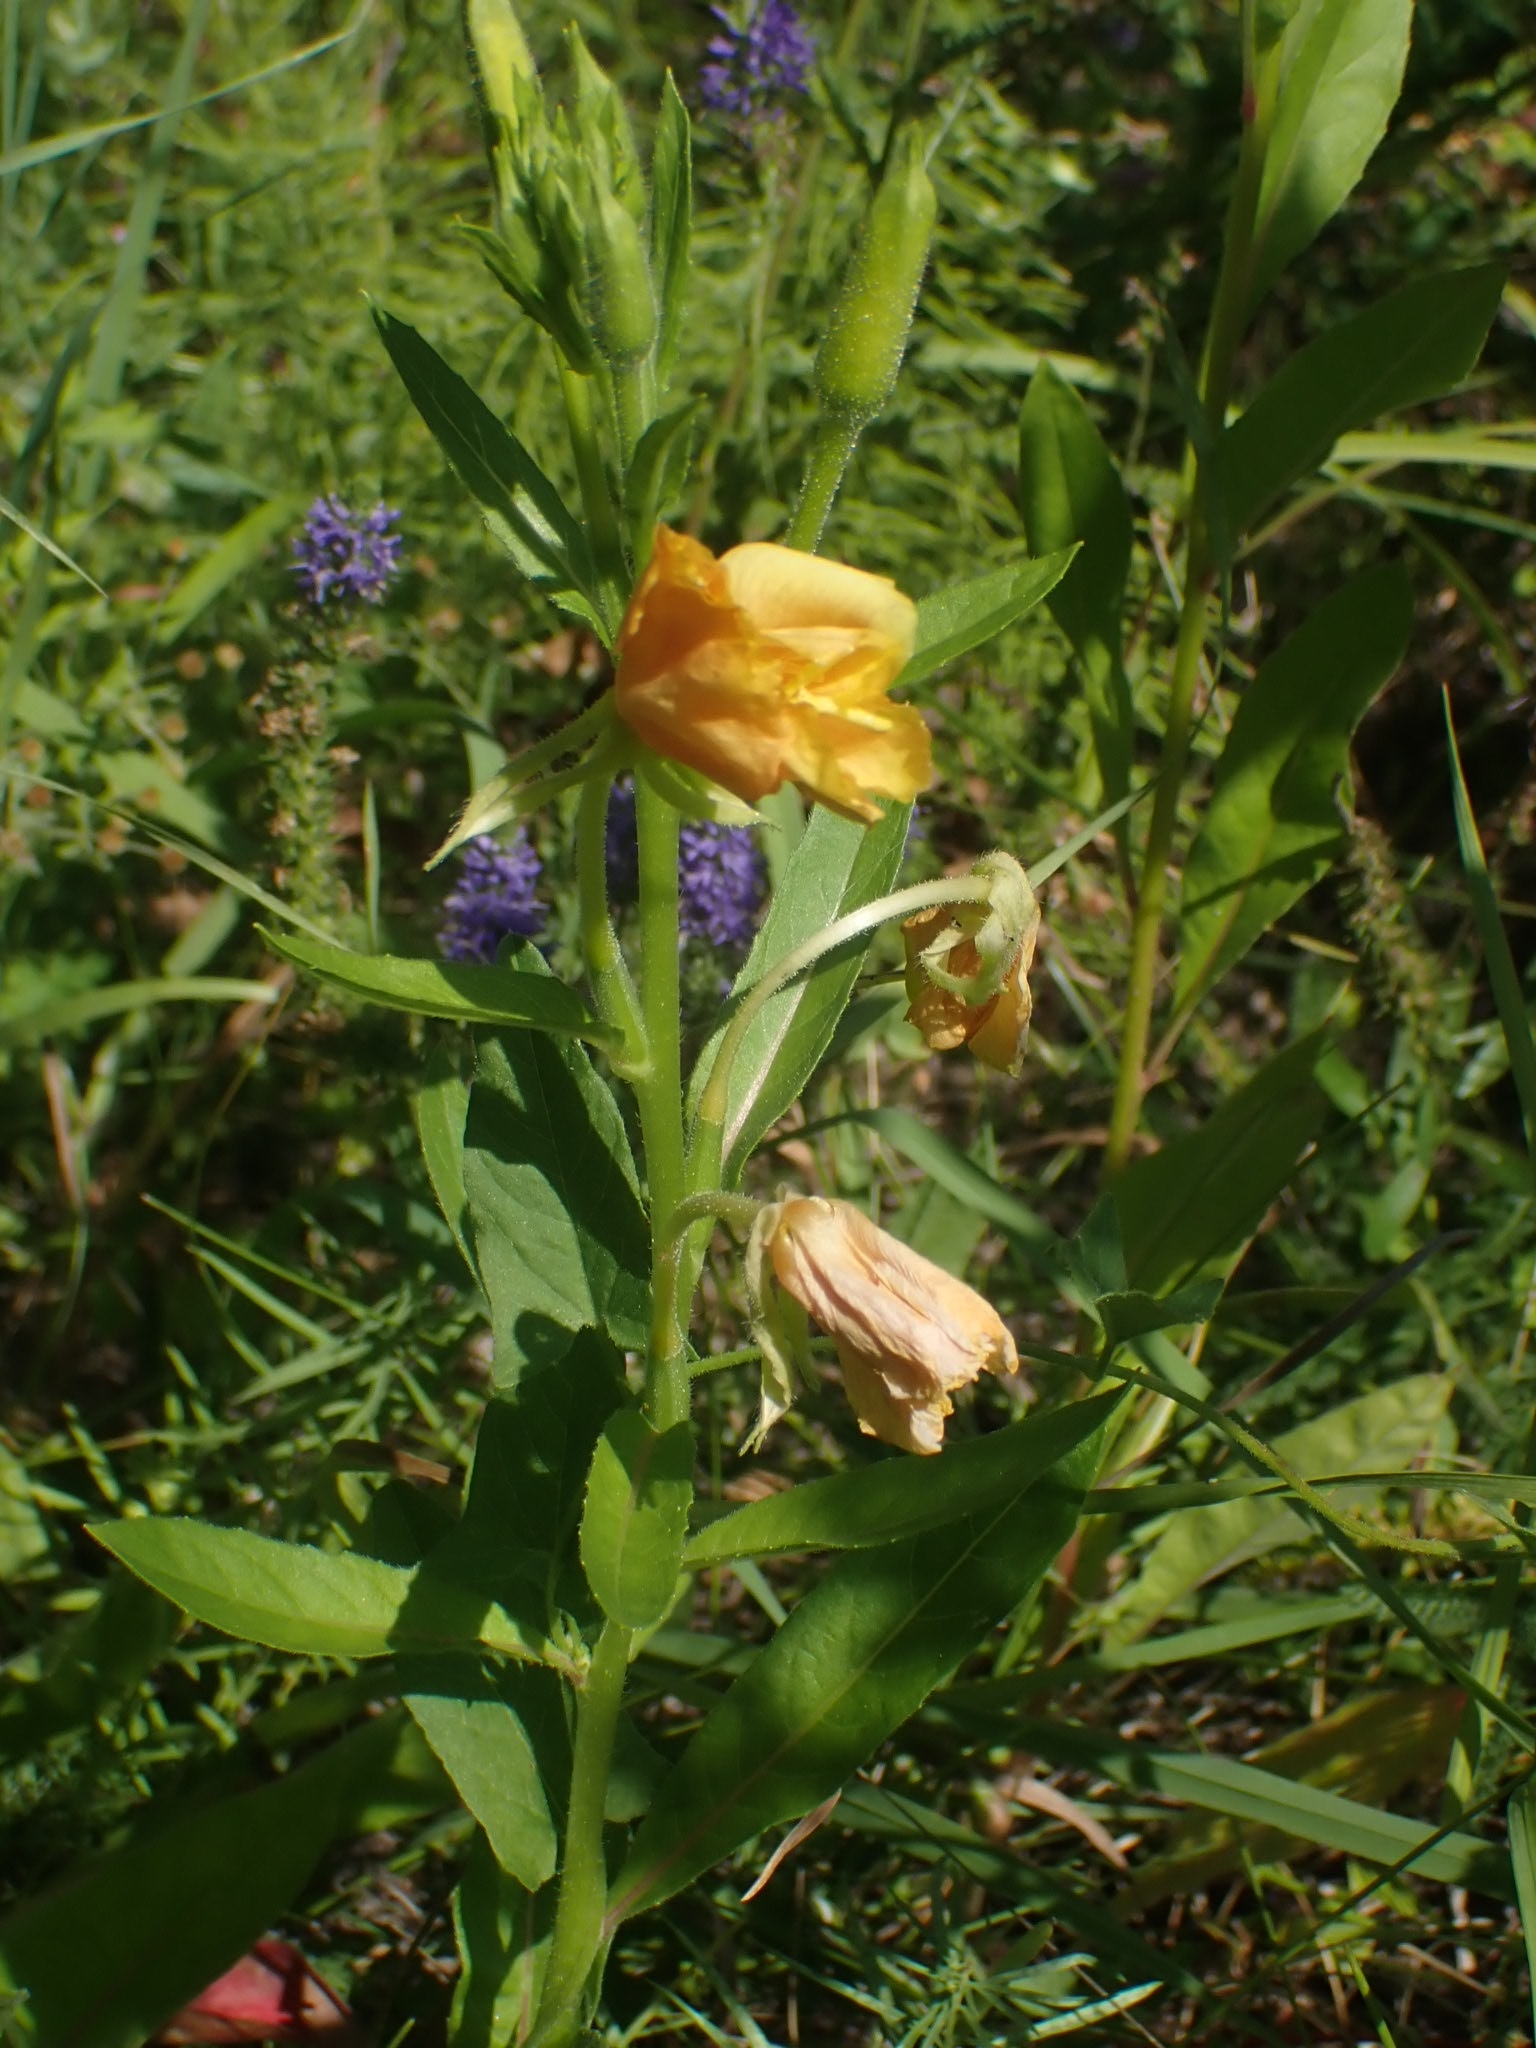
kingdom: Plantae
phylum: Tracheophyta
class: Magnoliopsida
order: Myrtales
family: Onagraceae
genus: Oenothera
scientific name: Oenothera biennis
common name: Common evening-primrose
